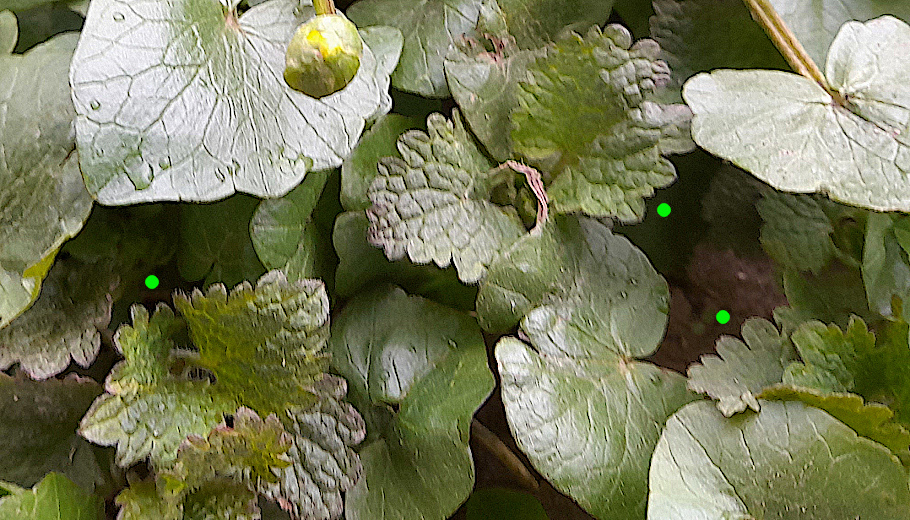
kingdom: Plantae
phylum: Tracheophyta
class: Magnoliopsida
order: Lamiales
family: Lamiaceae
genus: Lamium
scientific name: Lamium album
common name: White dead-nettle
